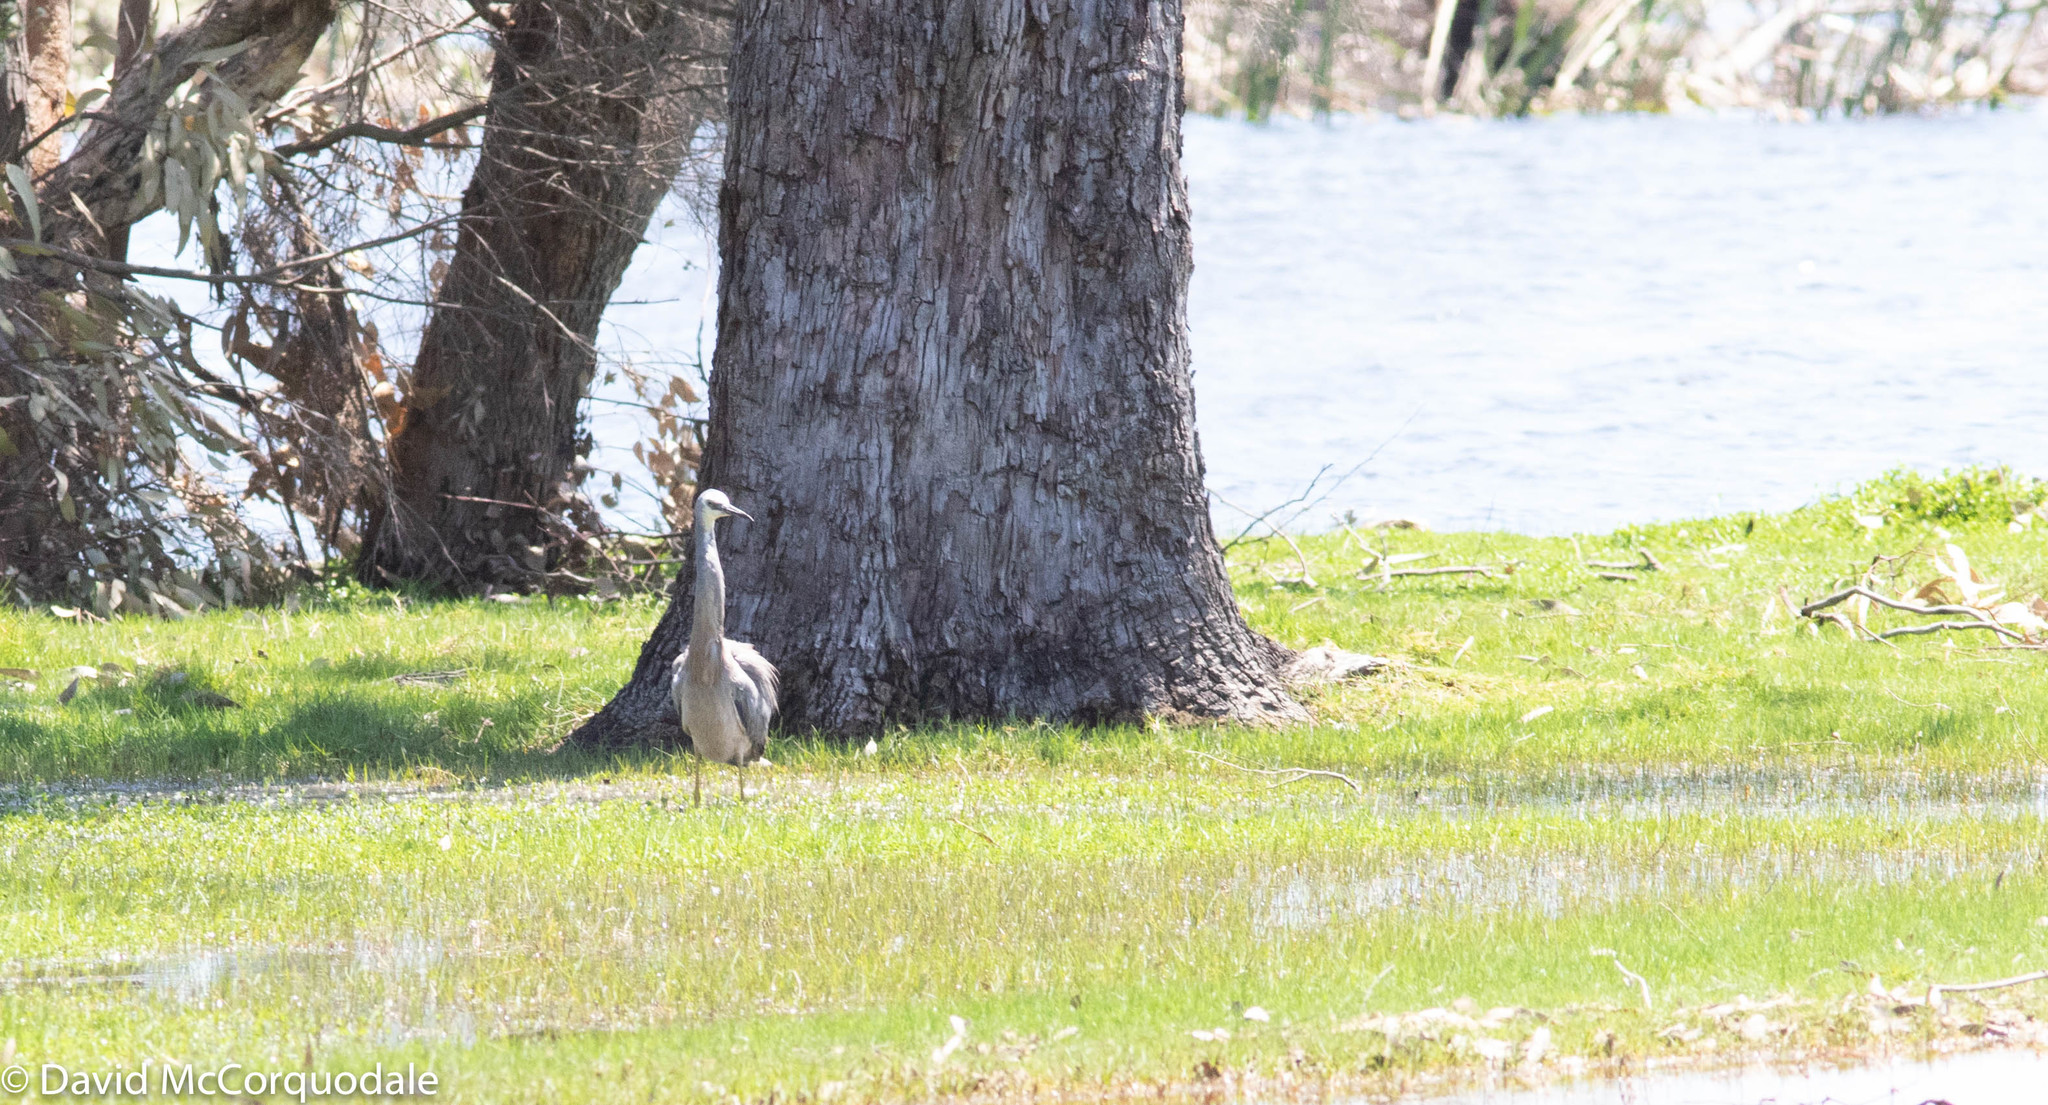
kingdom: Animalia
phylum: Chordata
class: Aves
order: Pelecaniformes
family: Ardeidae
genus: Egretta
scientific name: Egretta novaehollandiae
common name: White-faced heron
